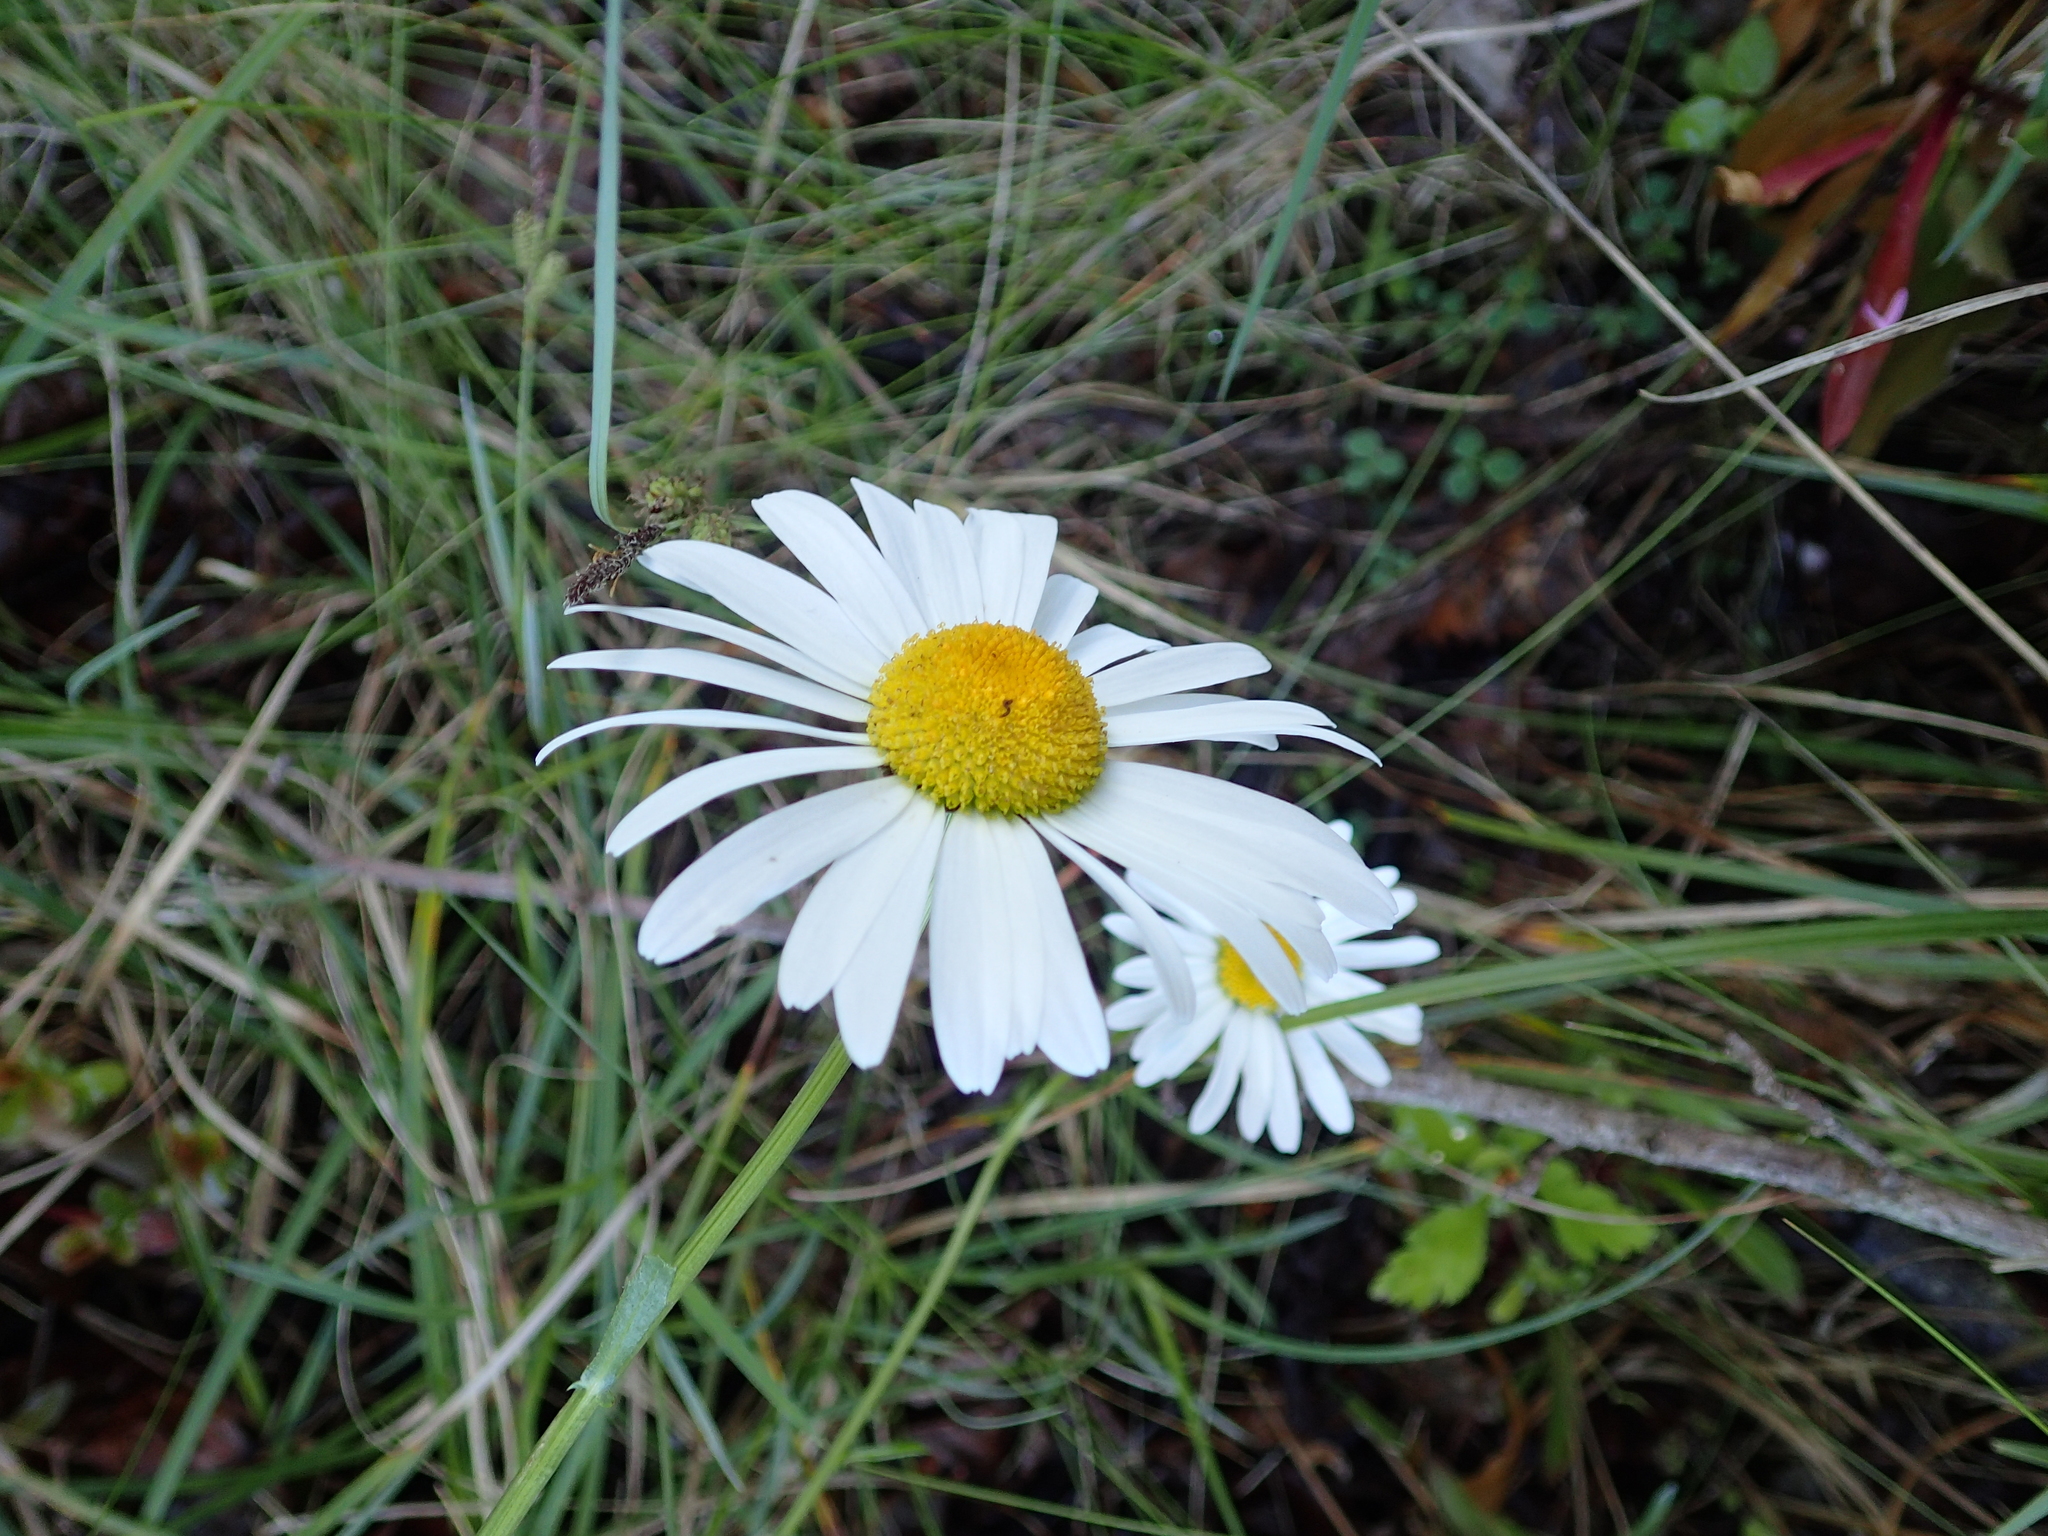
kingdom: Plantae
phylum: Tracheophyta
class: Magnoliopsida
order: Asterales
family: Asteraceae
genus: Leucanthemum
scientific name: Leucanthemum vulgare
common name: Oxeye daisy
